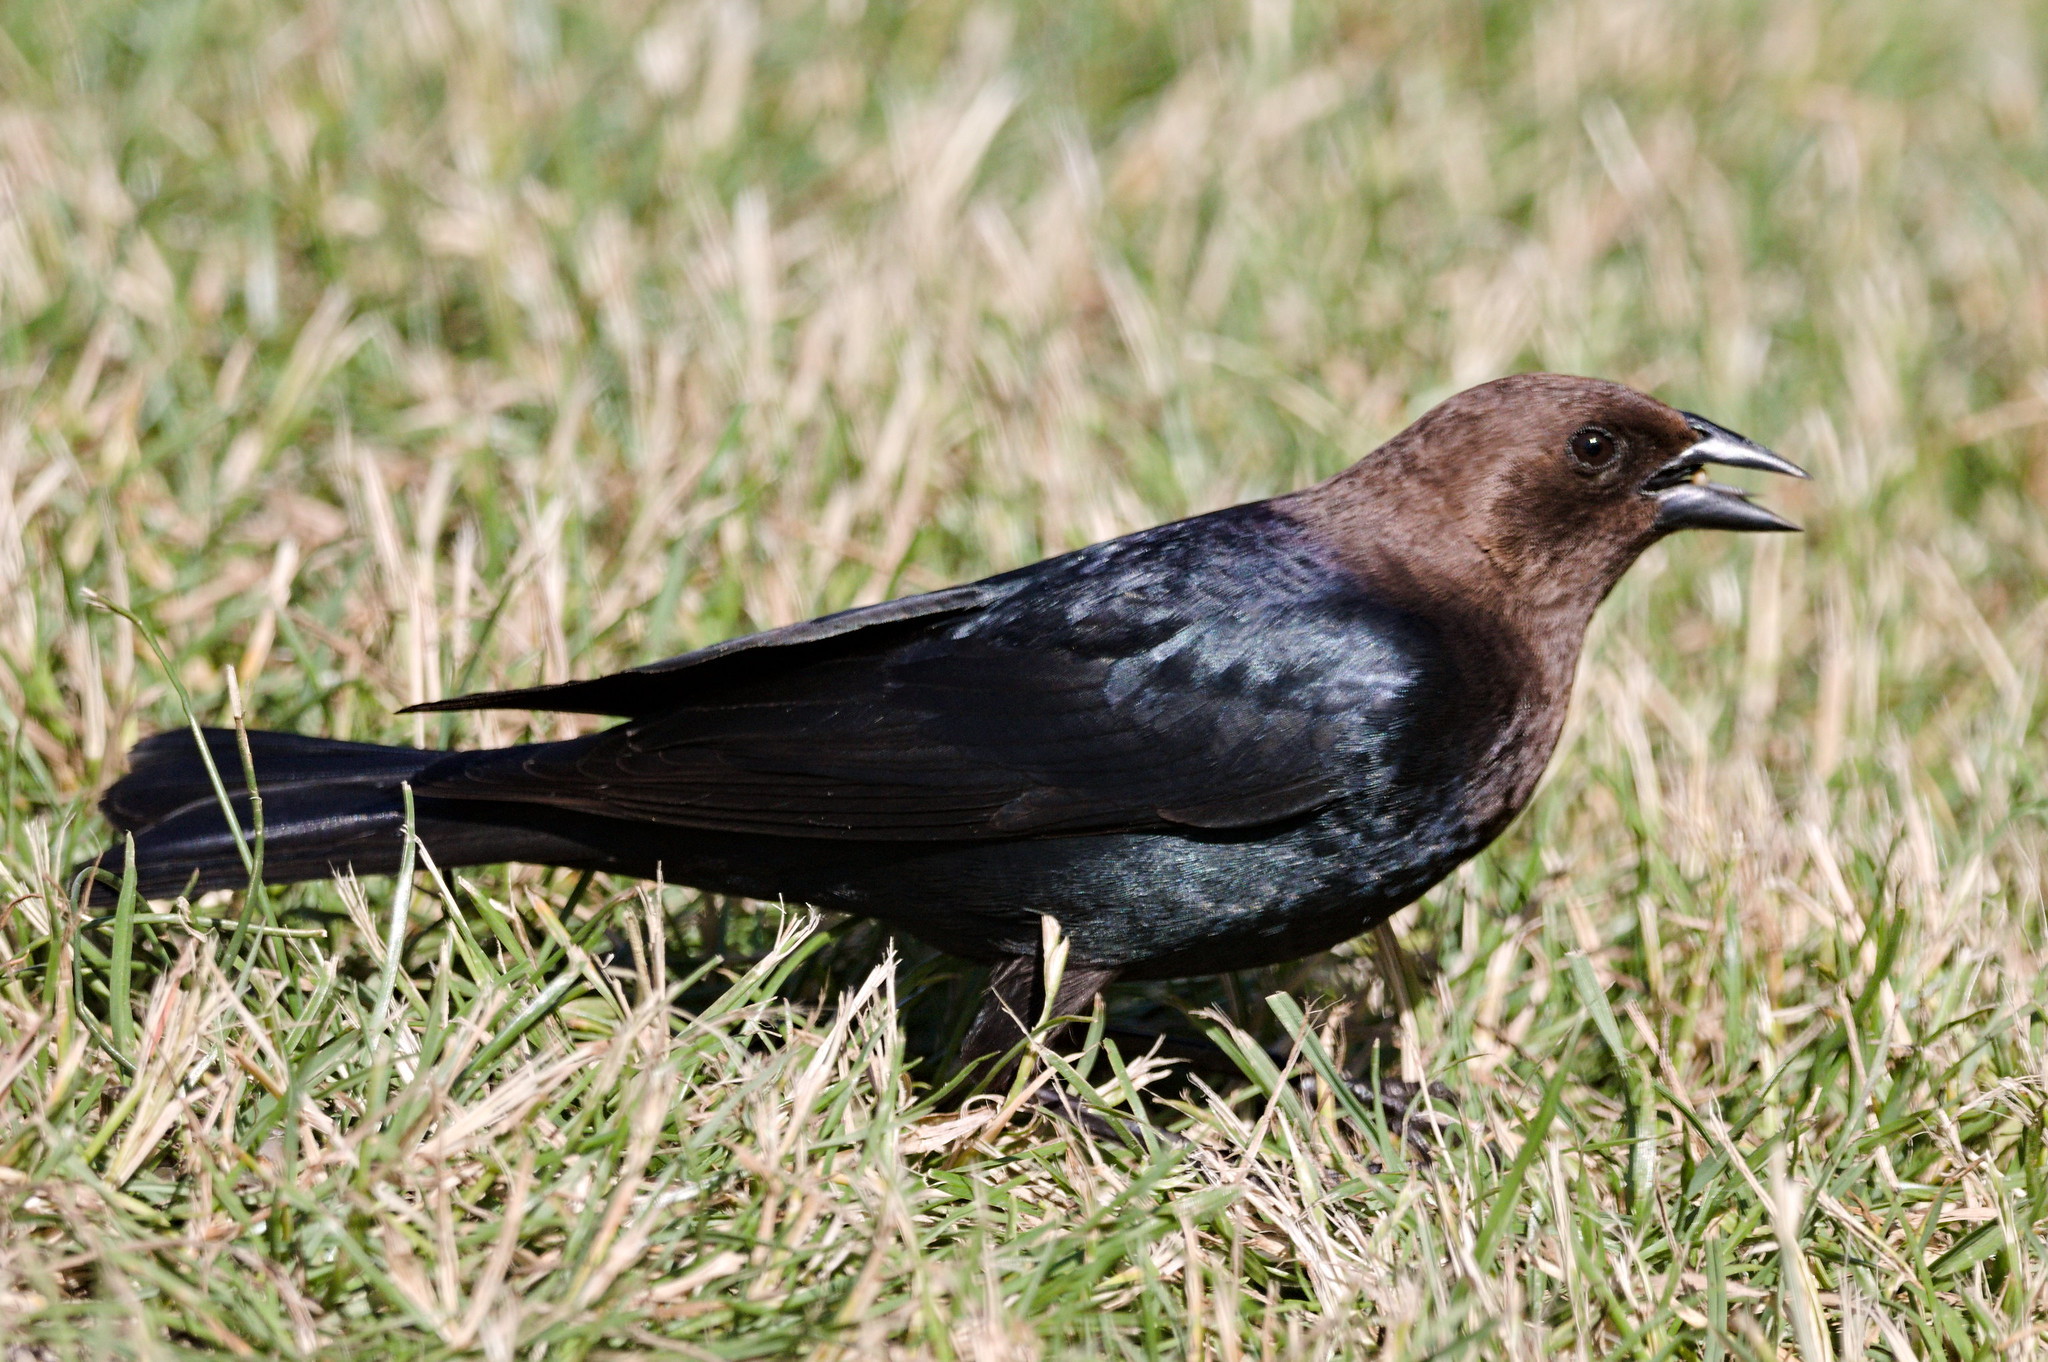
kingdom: Animalia
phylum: Chordata
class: Aves
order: Passeriformes
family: Icteridae
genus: Molothrus
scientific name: Molothrus ater
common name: Brown-headed cowbird
